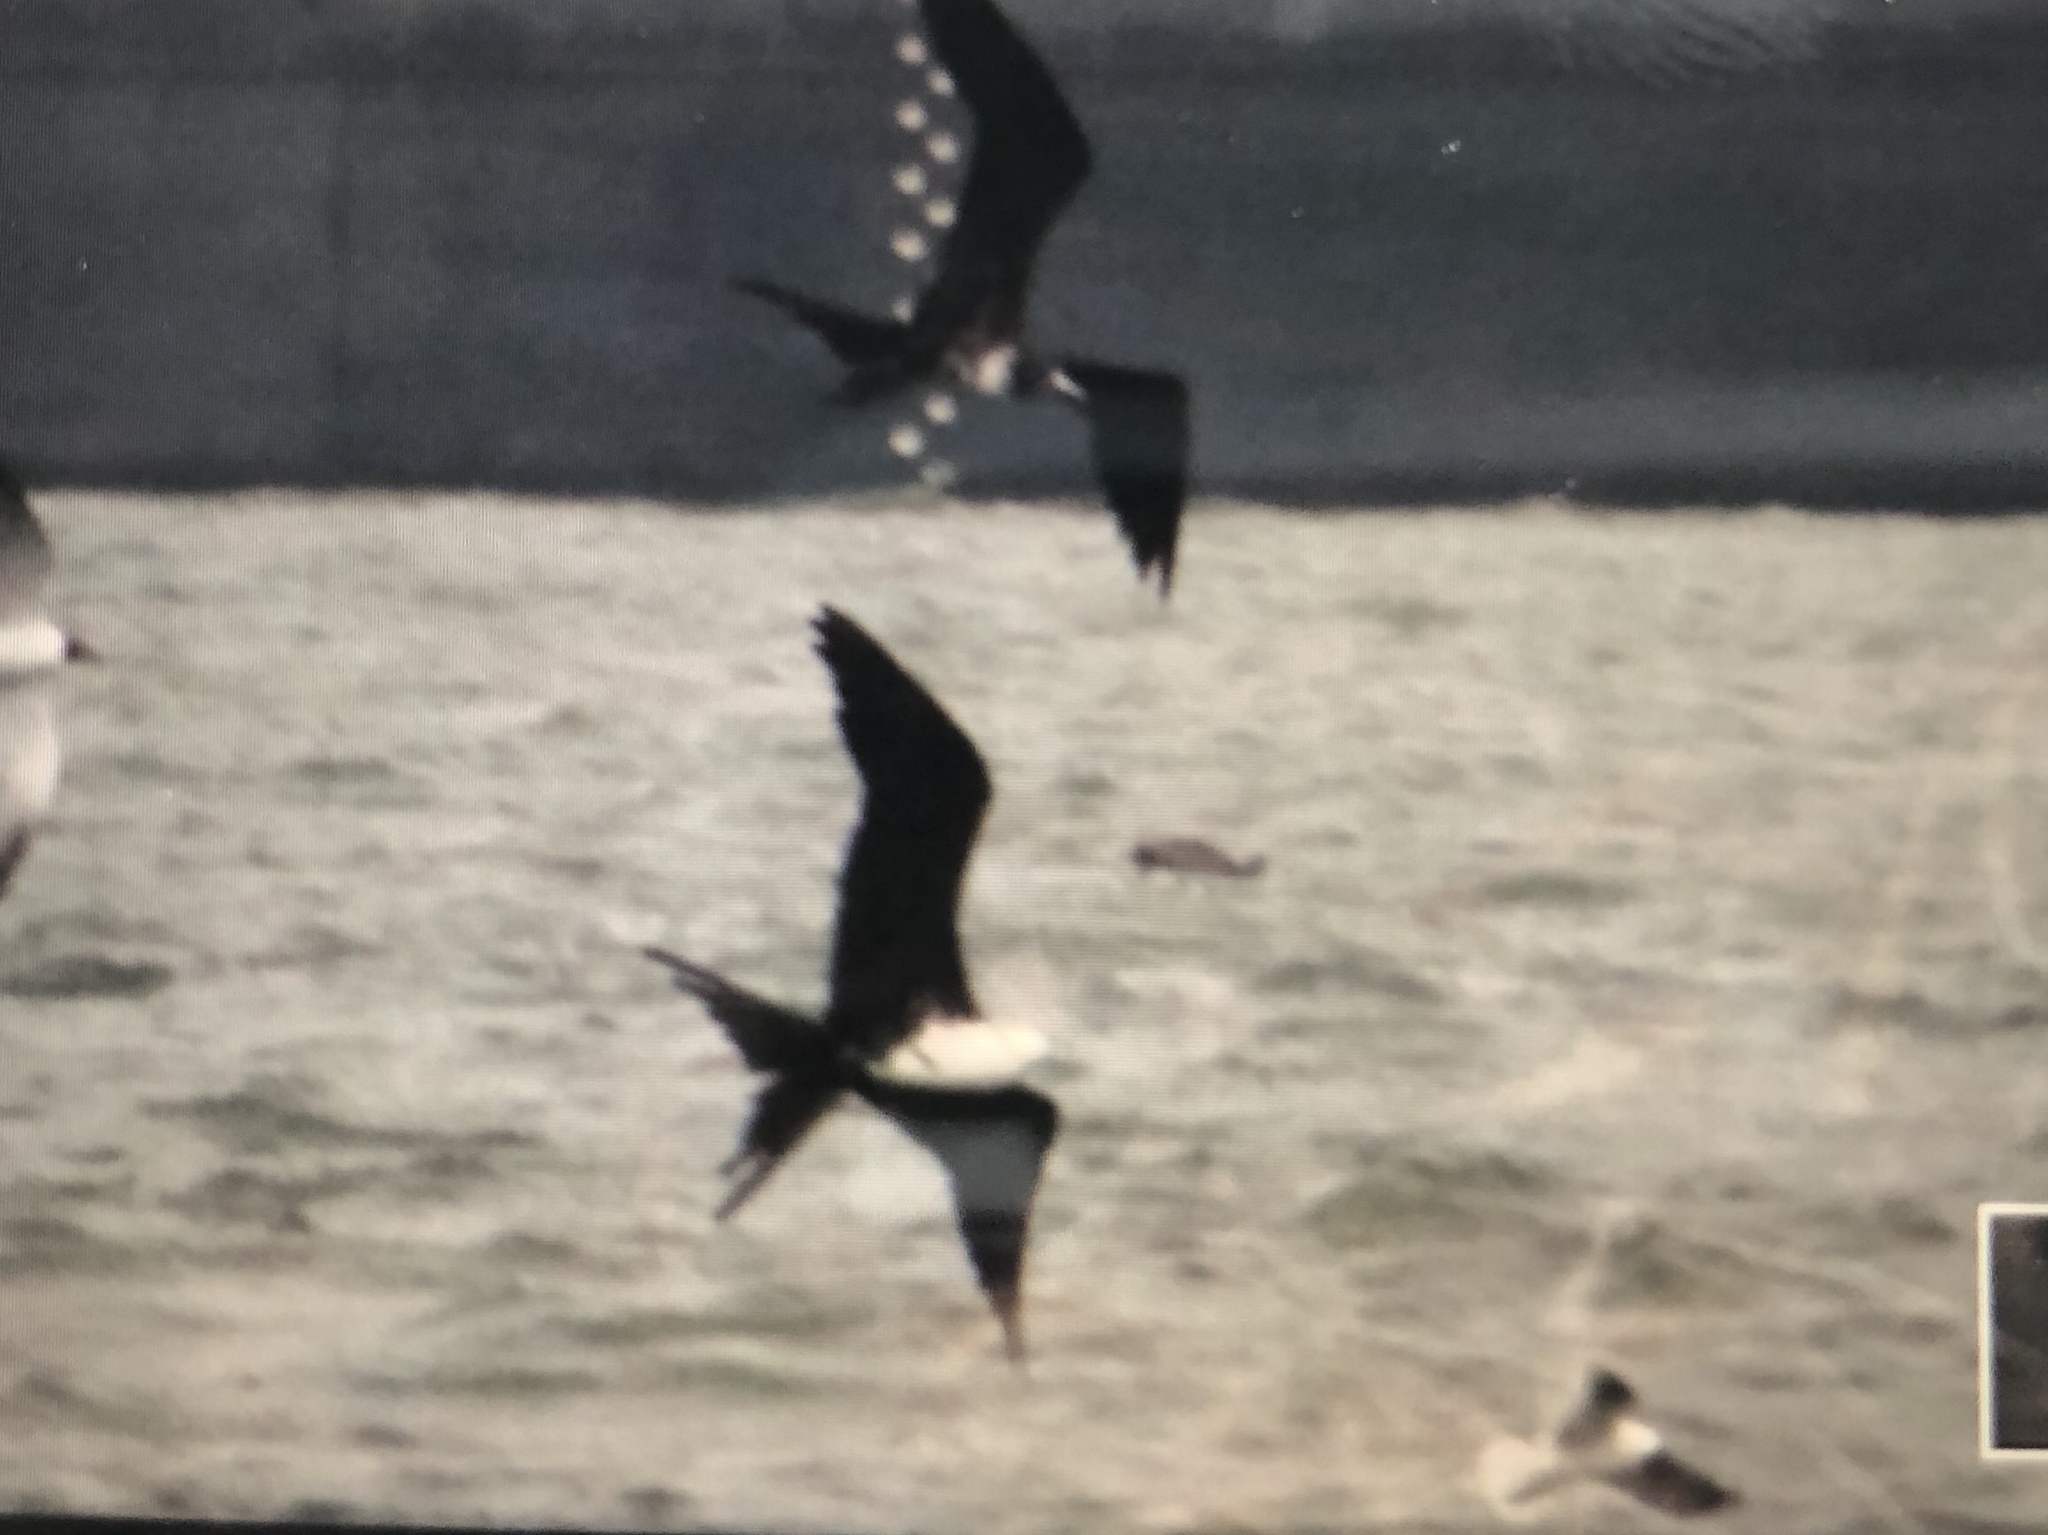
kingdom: Animalia
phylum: Chordata
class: Aves
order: Suliformes
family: Fregatidae
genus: Fregata
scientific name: Fregata magnificens
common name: Magnificent frigatebird
